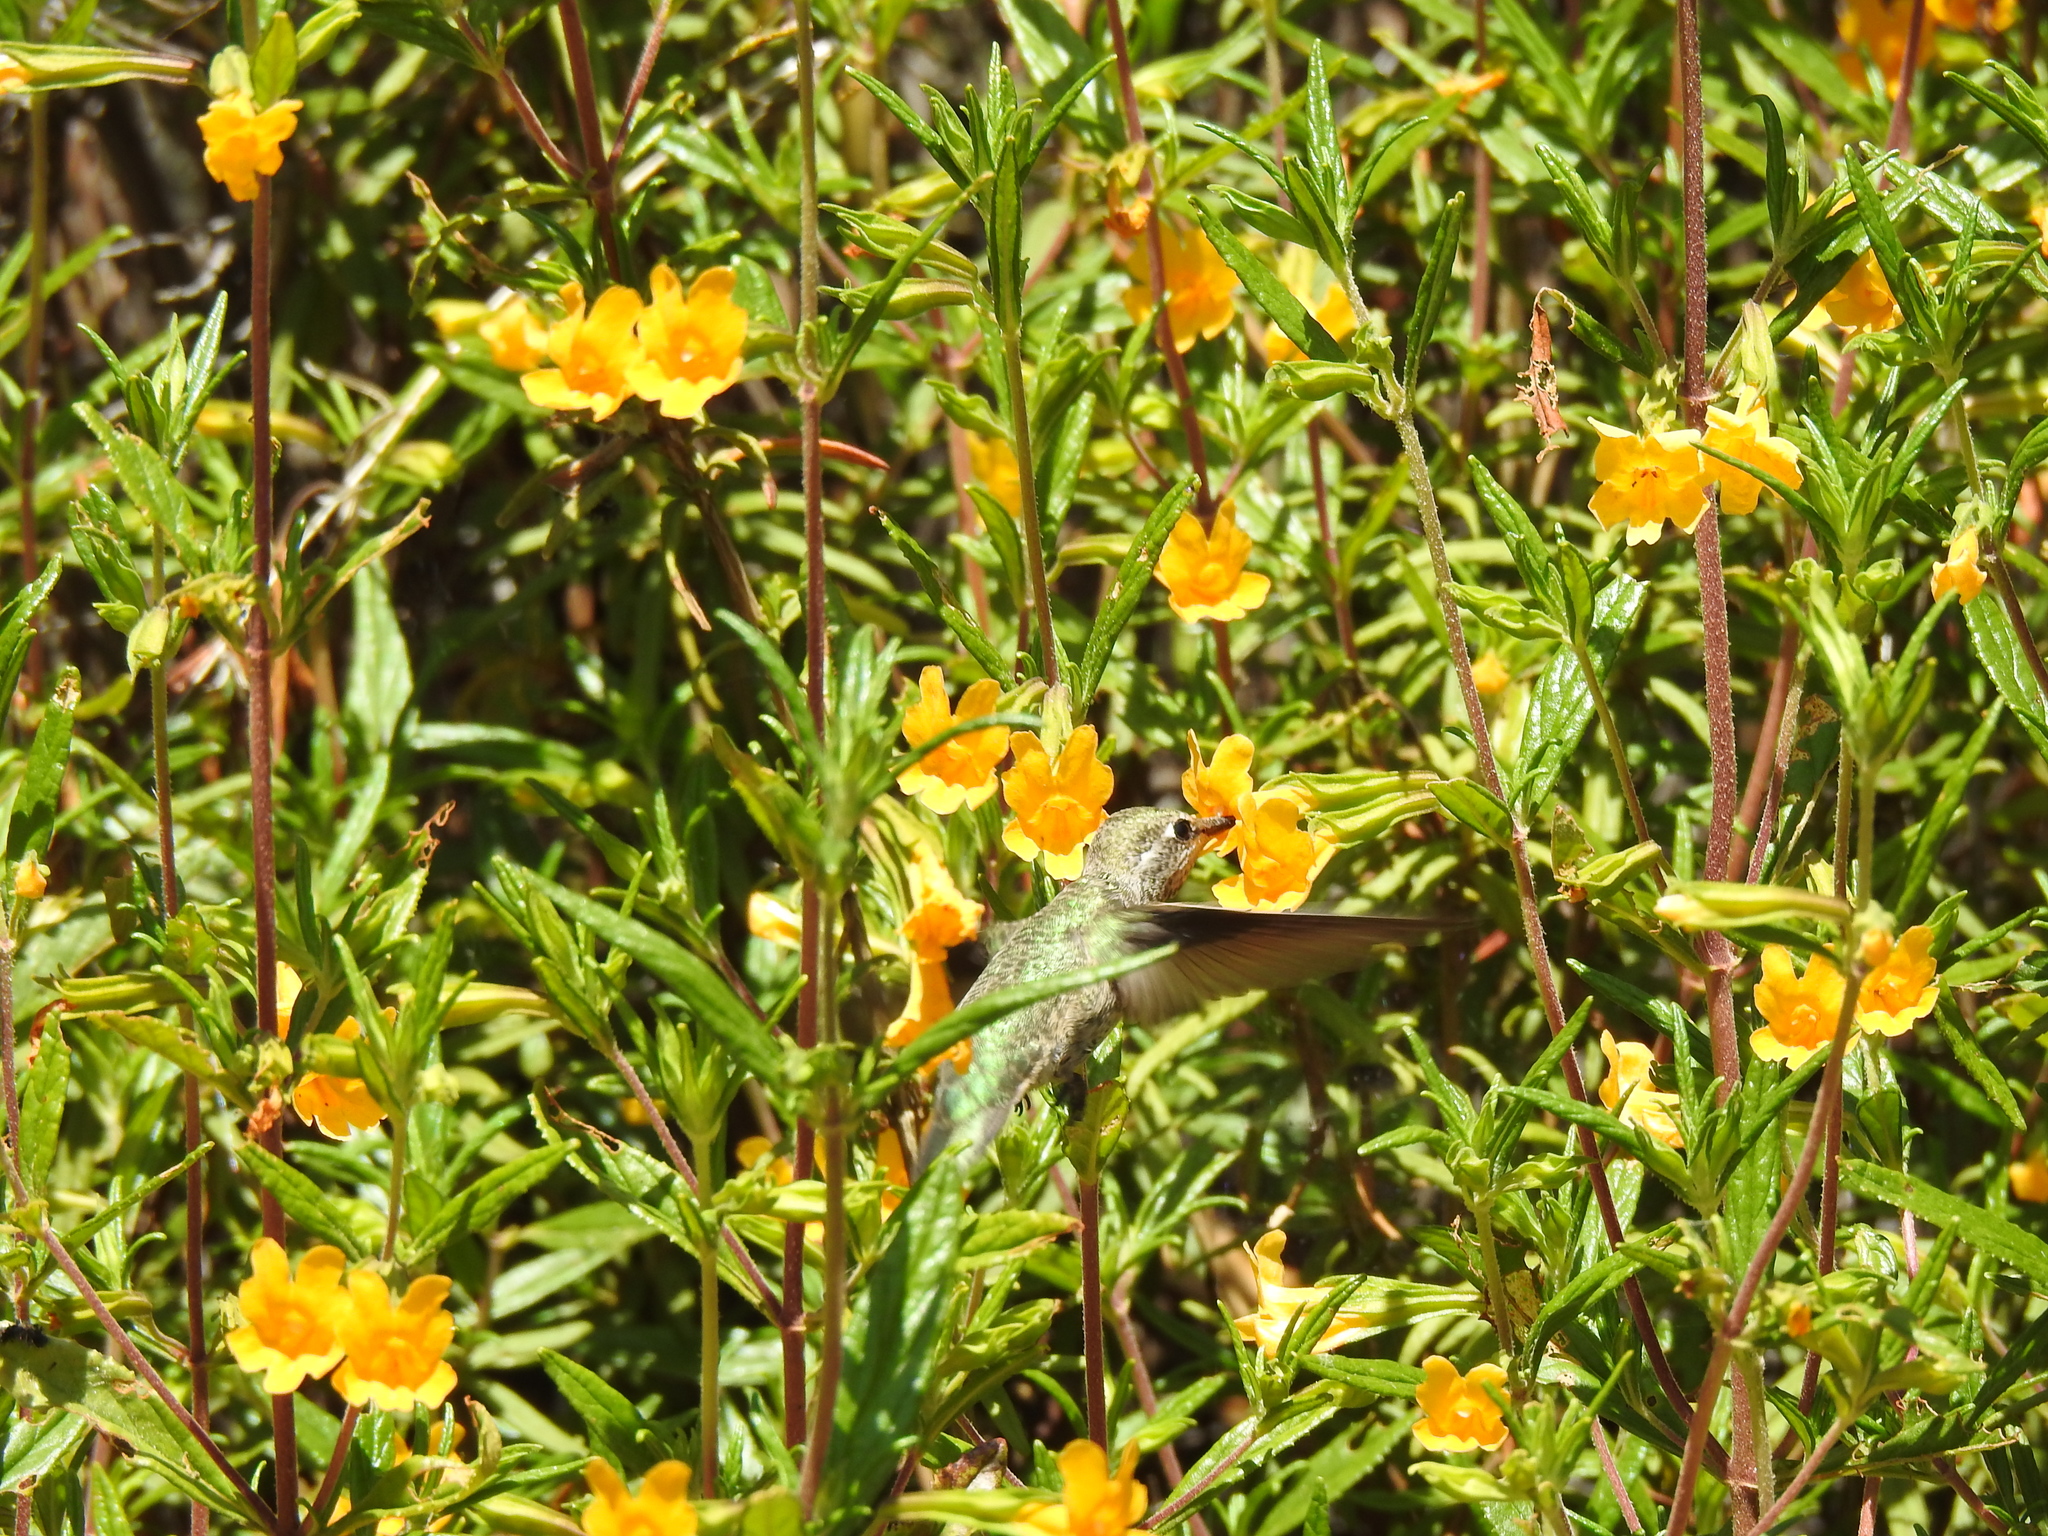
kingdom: Animalia
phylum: Chordata
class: Aves
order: Apodiformes
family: Trochilidae
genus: Calypte
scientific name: Calypte anna
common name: Anna's hummingbird
